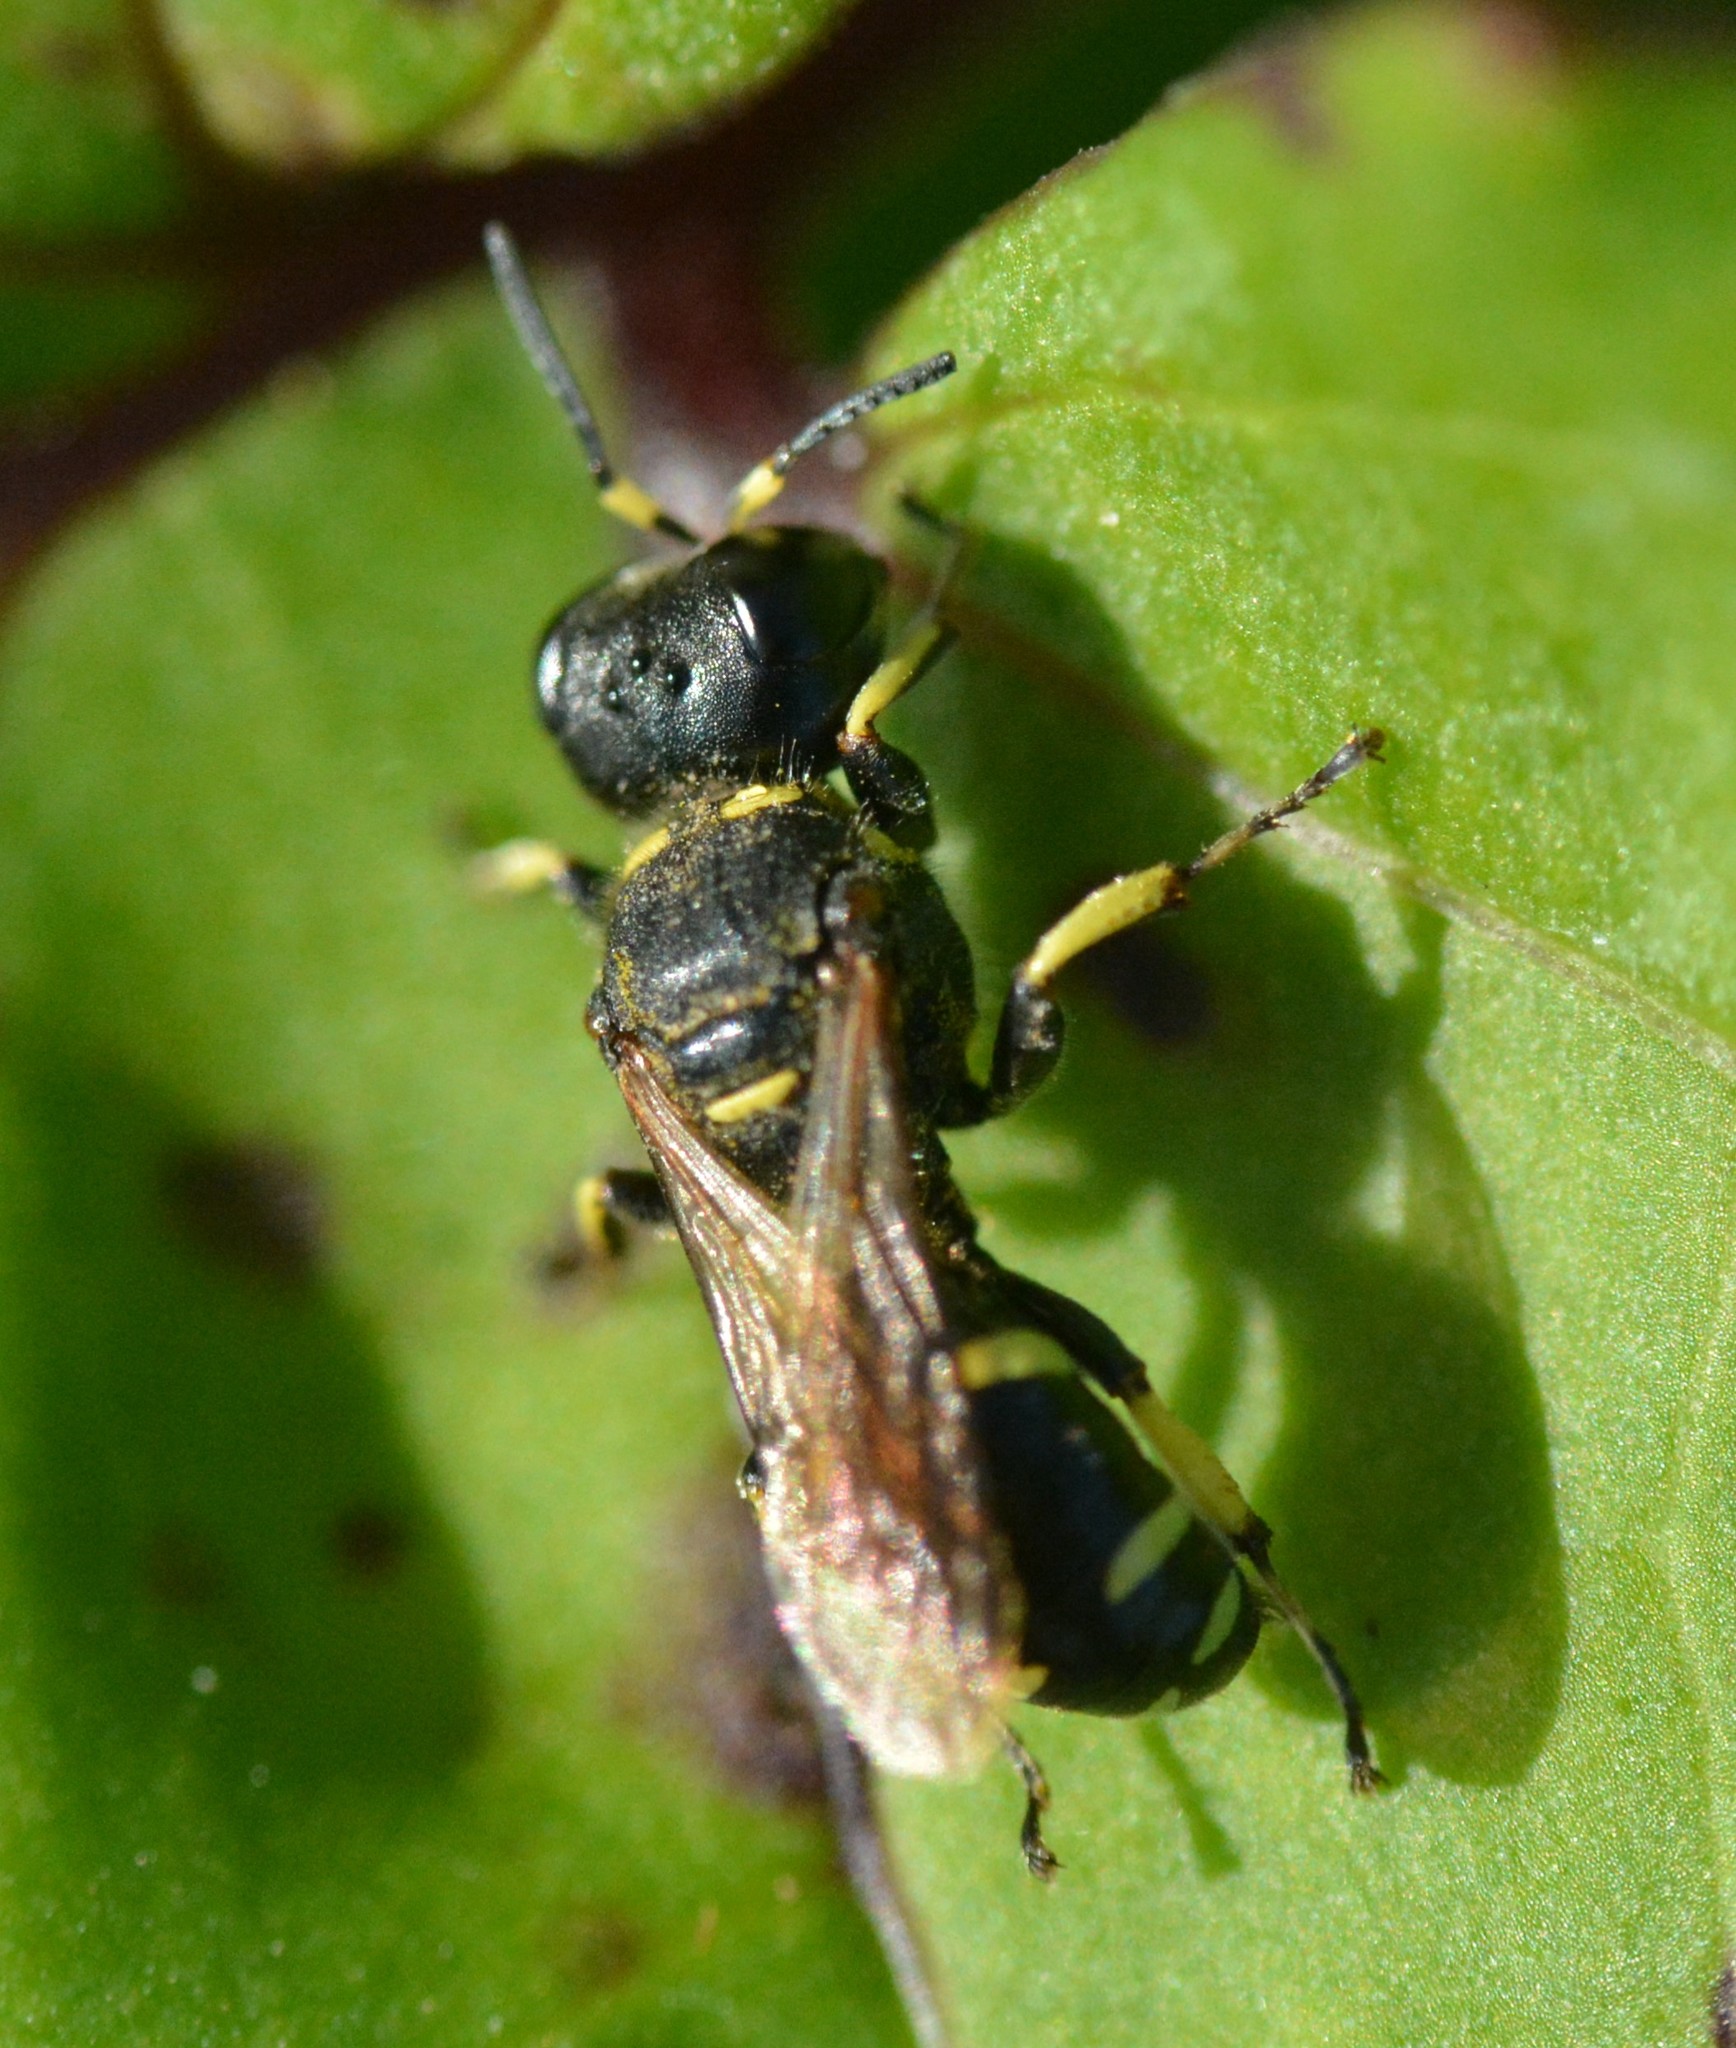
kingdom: Animalia
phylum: Arthropoda
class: Insecta
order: Hymenoptera
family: Crabronidae
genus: Ectemnius
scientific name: Ectemnius continuus
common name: Common ectemnius
